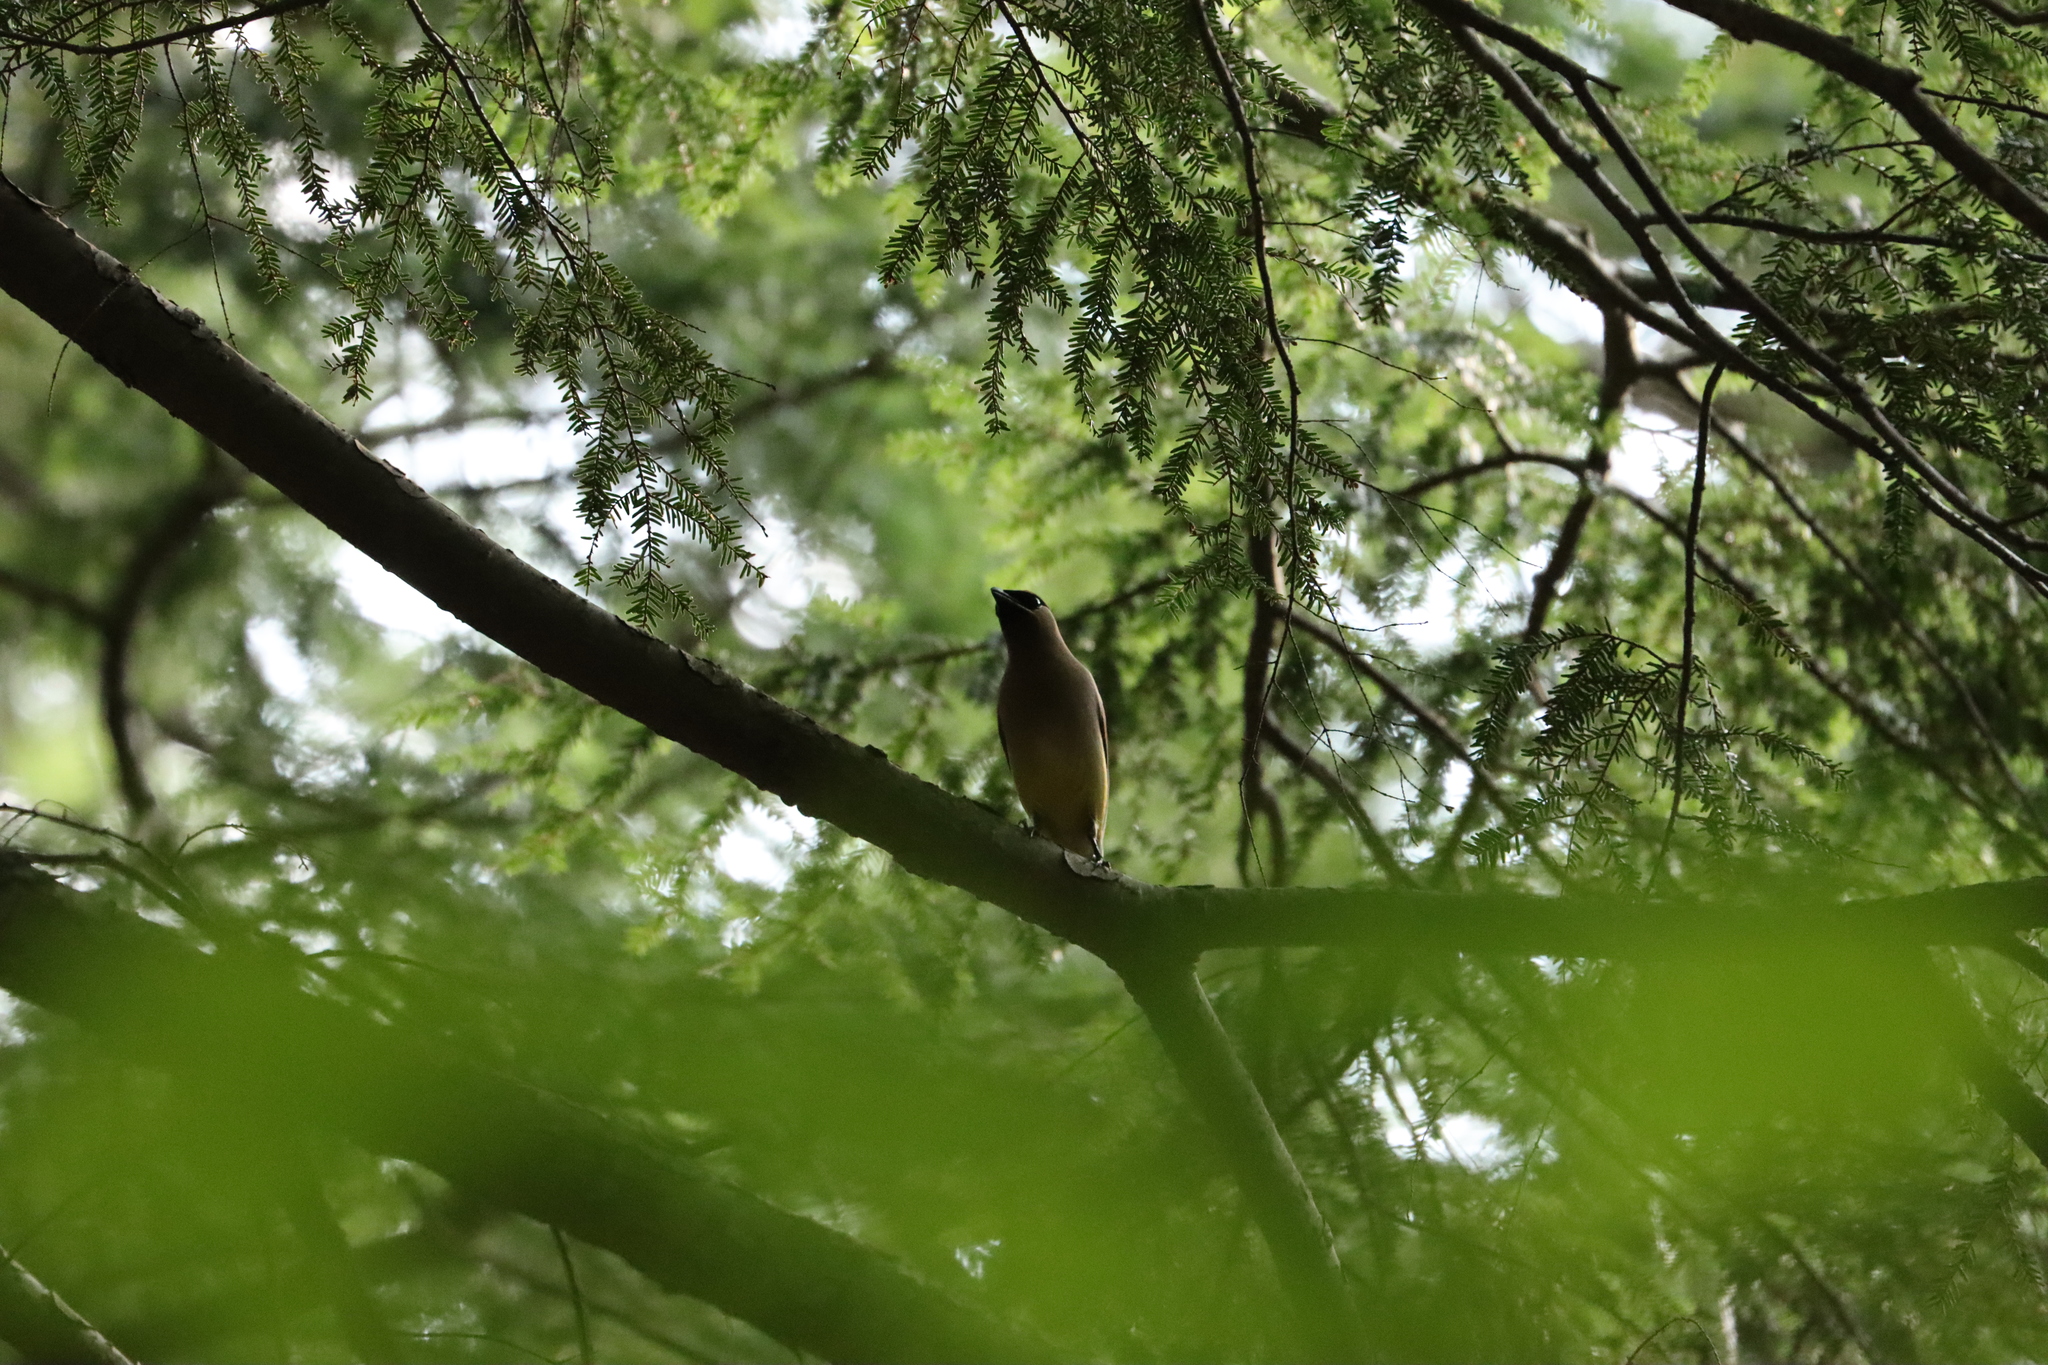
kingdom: Animalia
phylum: Chordata
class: Aves
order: Passeriformes
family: Bombycillidae
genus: Bombycilla
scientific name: Bombycilla cedrorum
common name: Cedar waxwing
